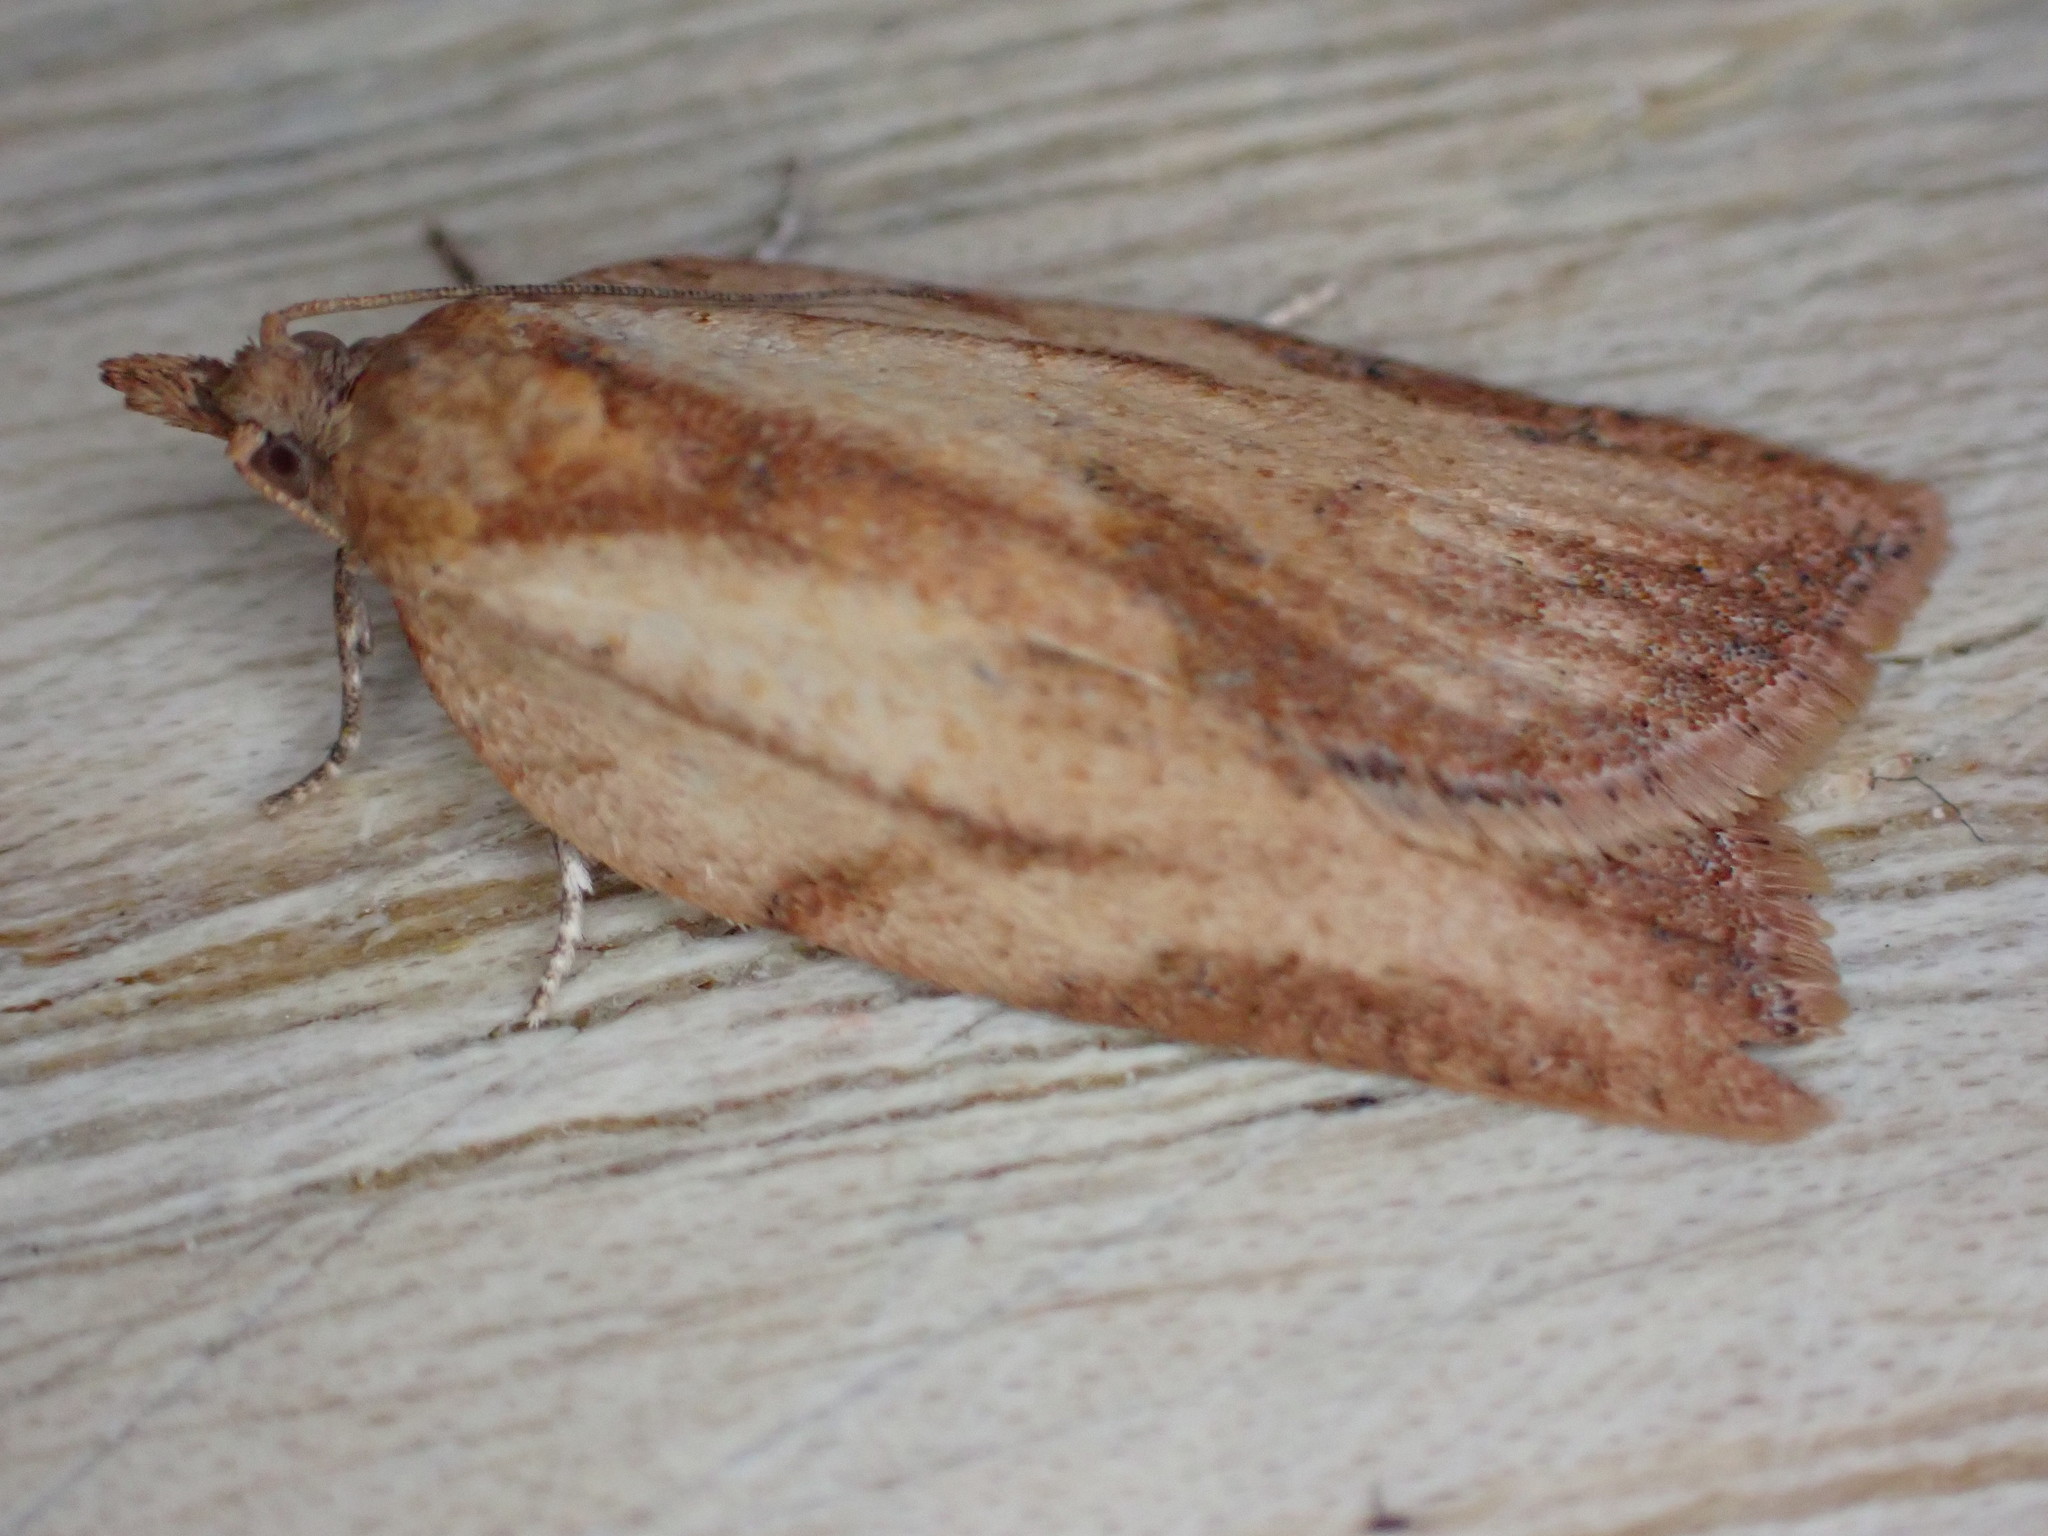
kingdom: Animalia
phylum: Arthropoda
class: Insecta
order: Lepidoptera
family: Tortricidae
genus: Epiphyas
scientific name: Epiphyas postvittana
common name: Light brown apple moth
